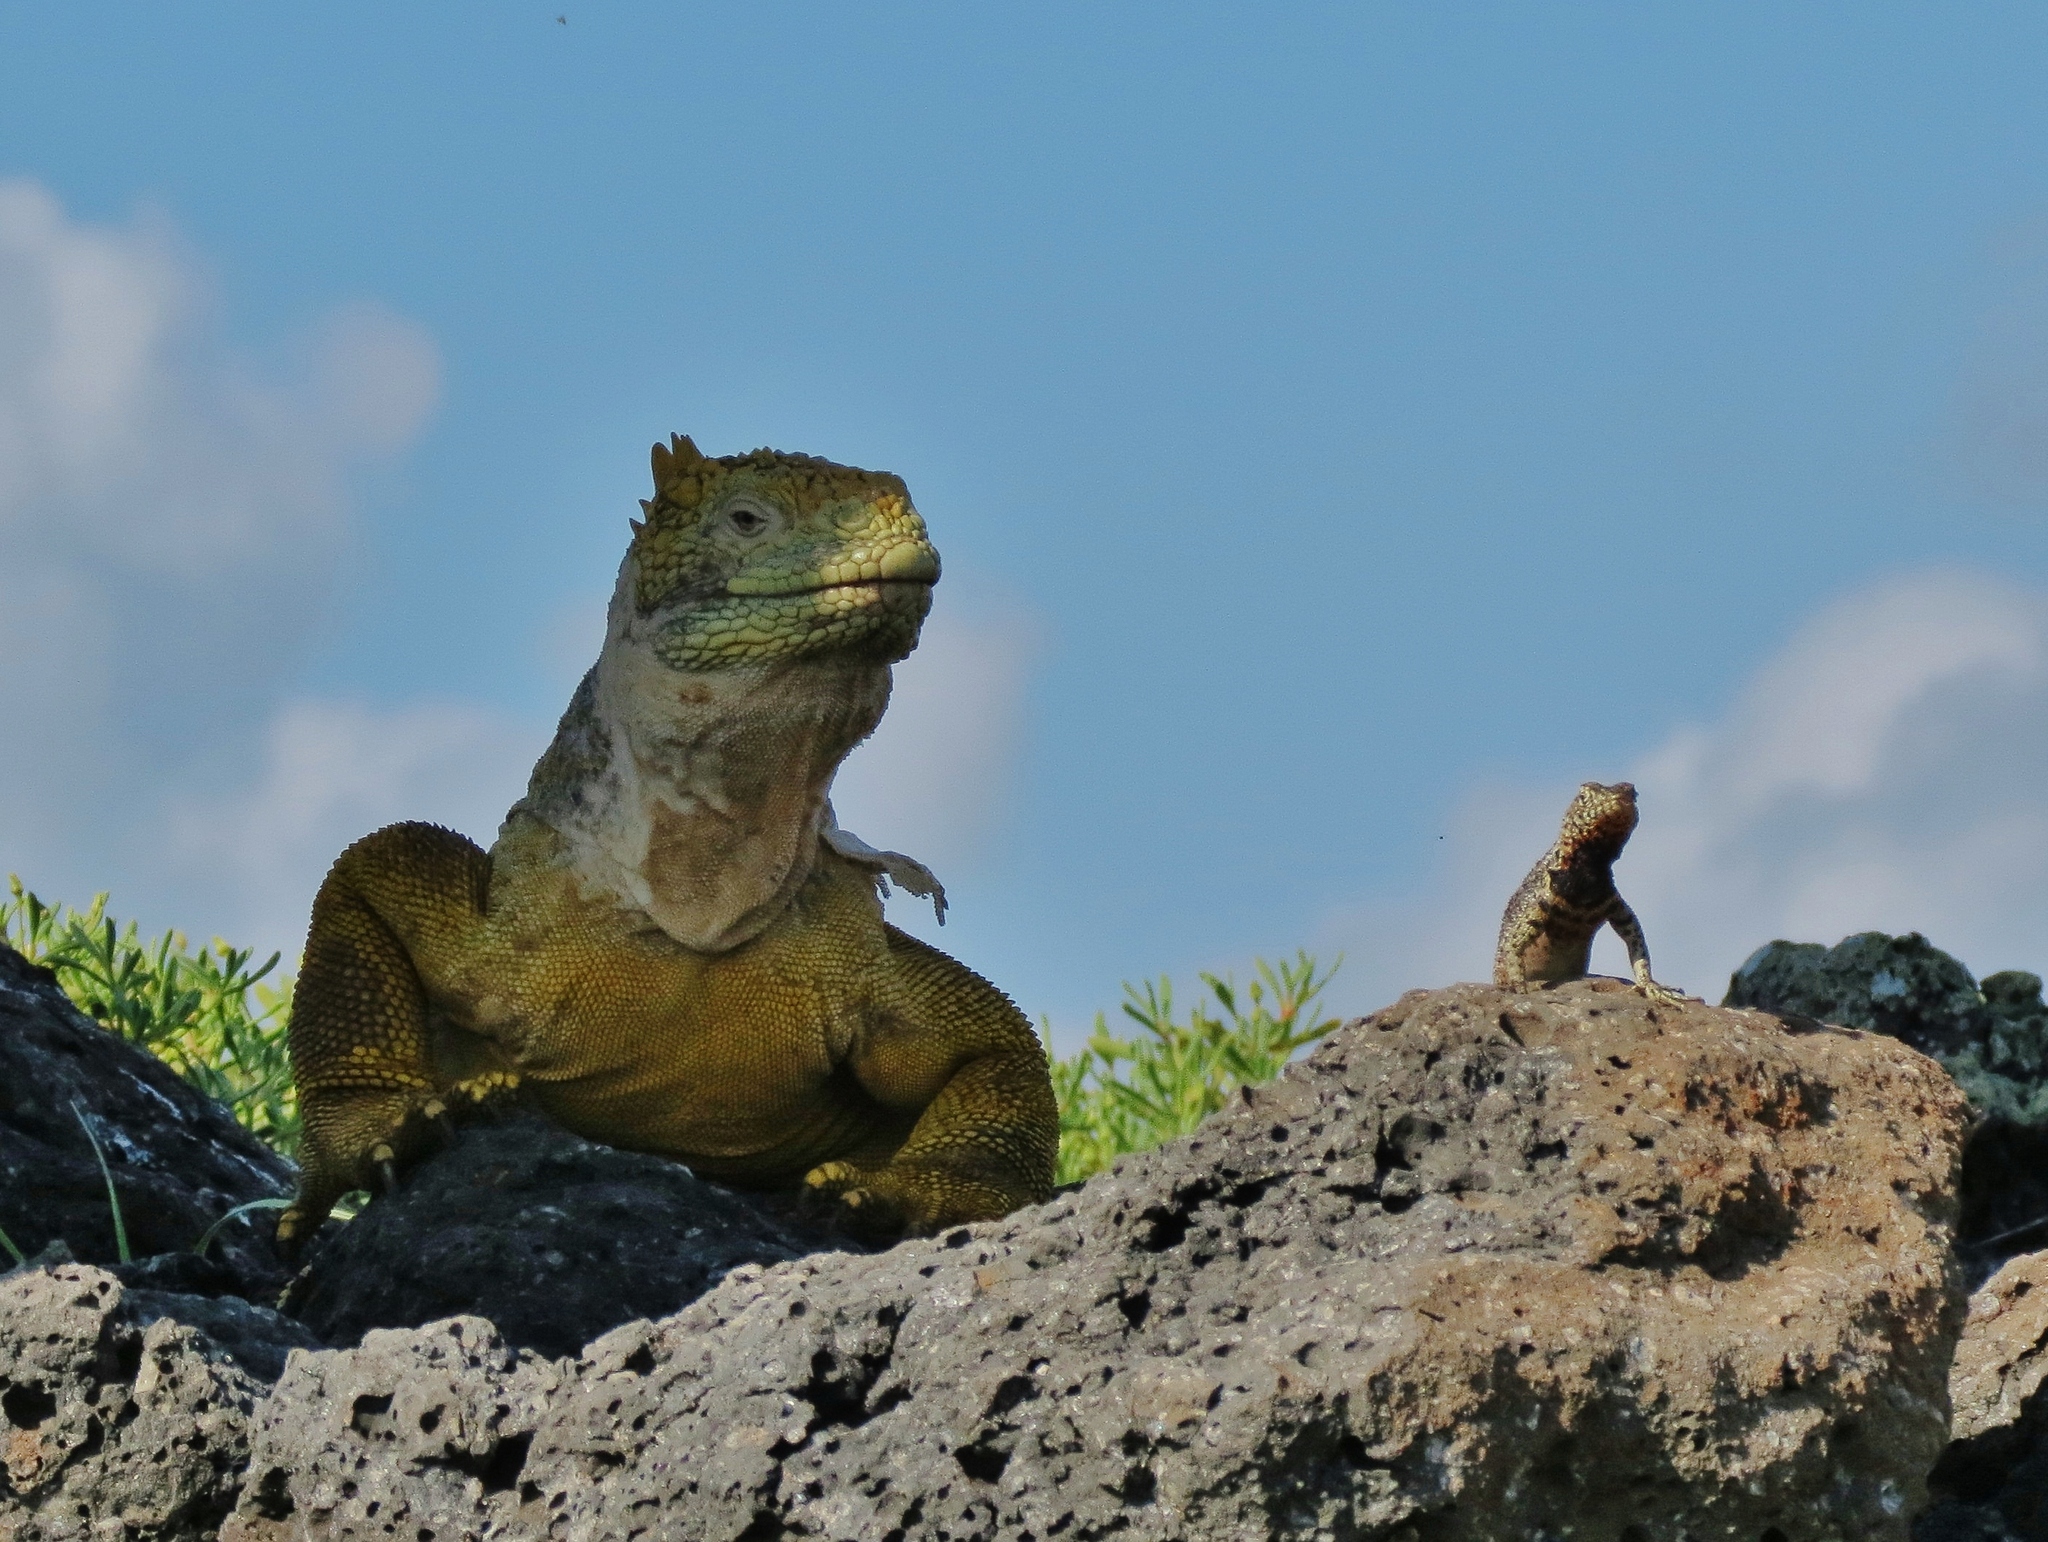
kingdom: Animalia
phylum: Chordata
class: Squamata
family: Iguanidae
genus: Conolophus
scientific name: Conolophus subcristatus
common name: Galapagos land iguana
